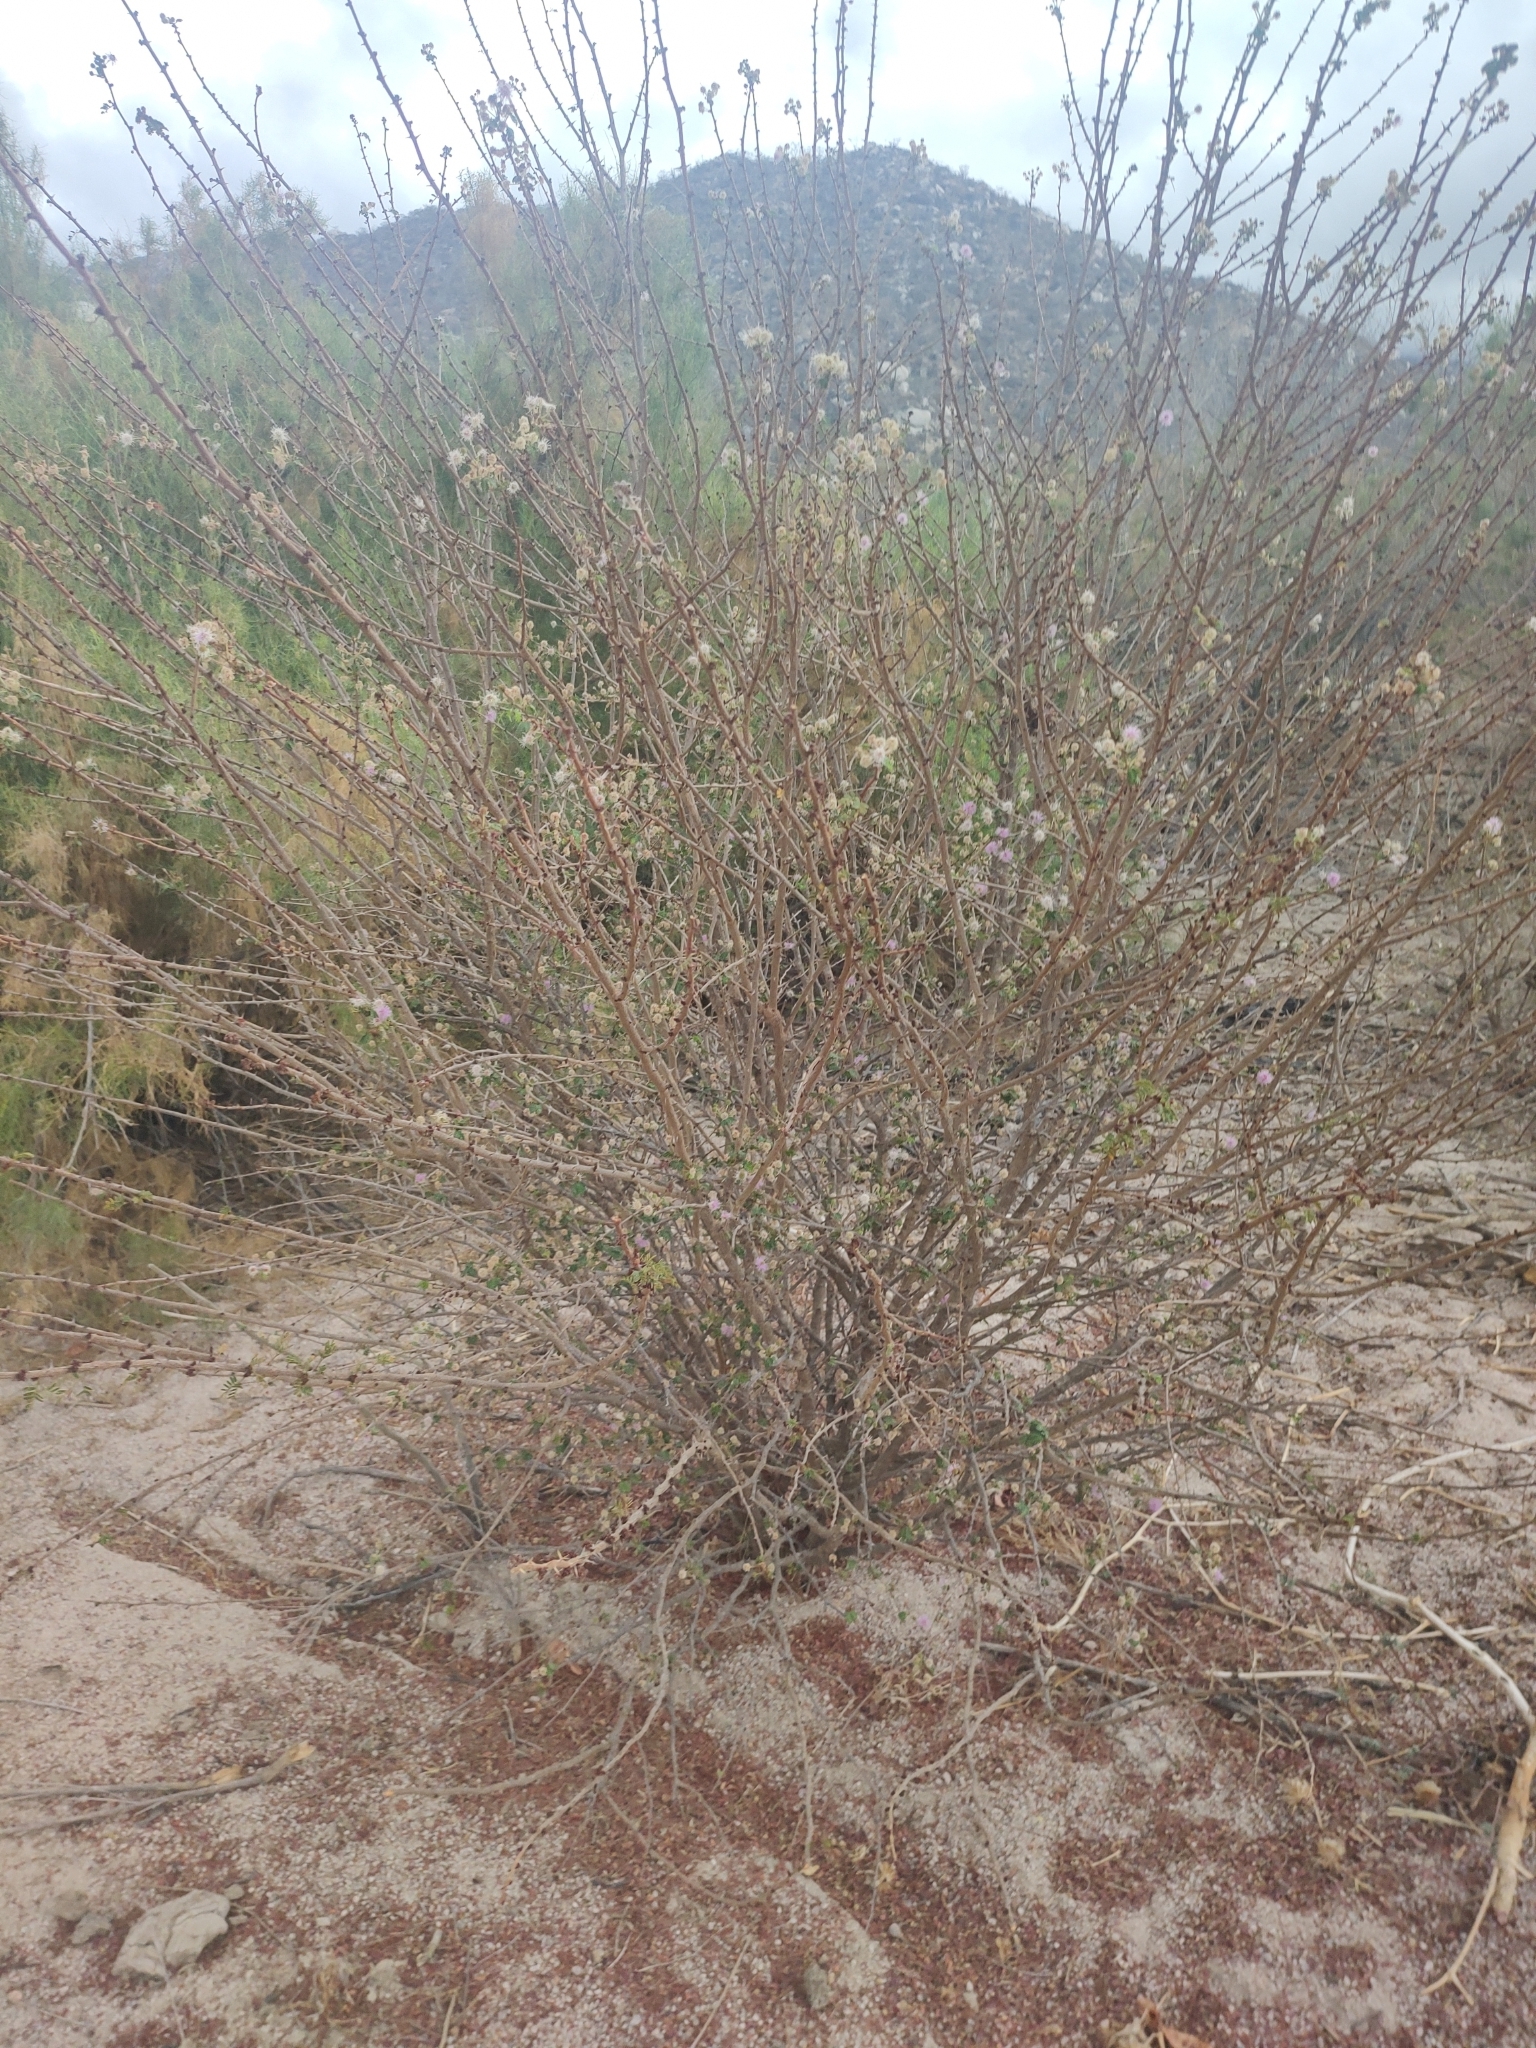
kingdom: Plantae
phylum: Tracheophyta
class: Magnoliopsida
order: Fabales
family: Fabaceae
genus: Mimosa
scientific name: Mimosa tricephala
